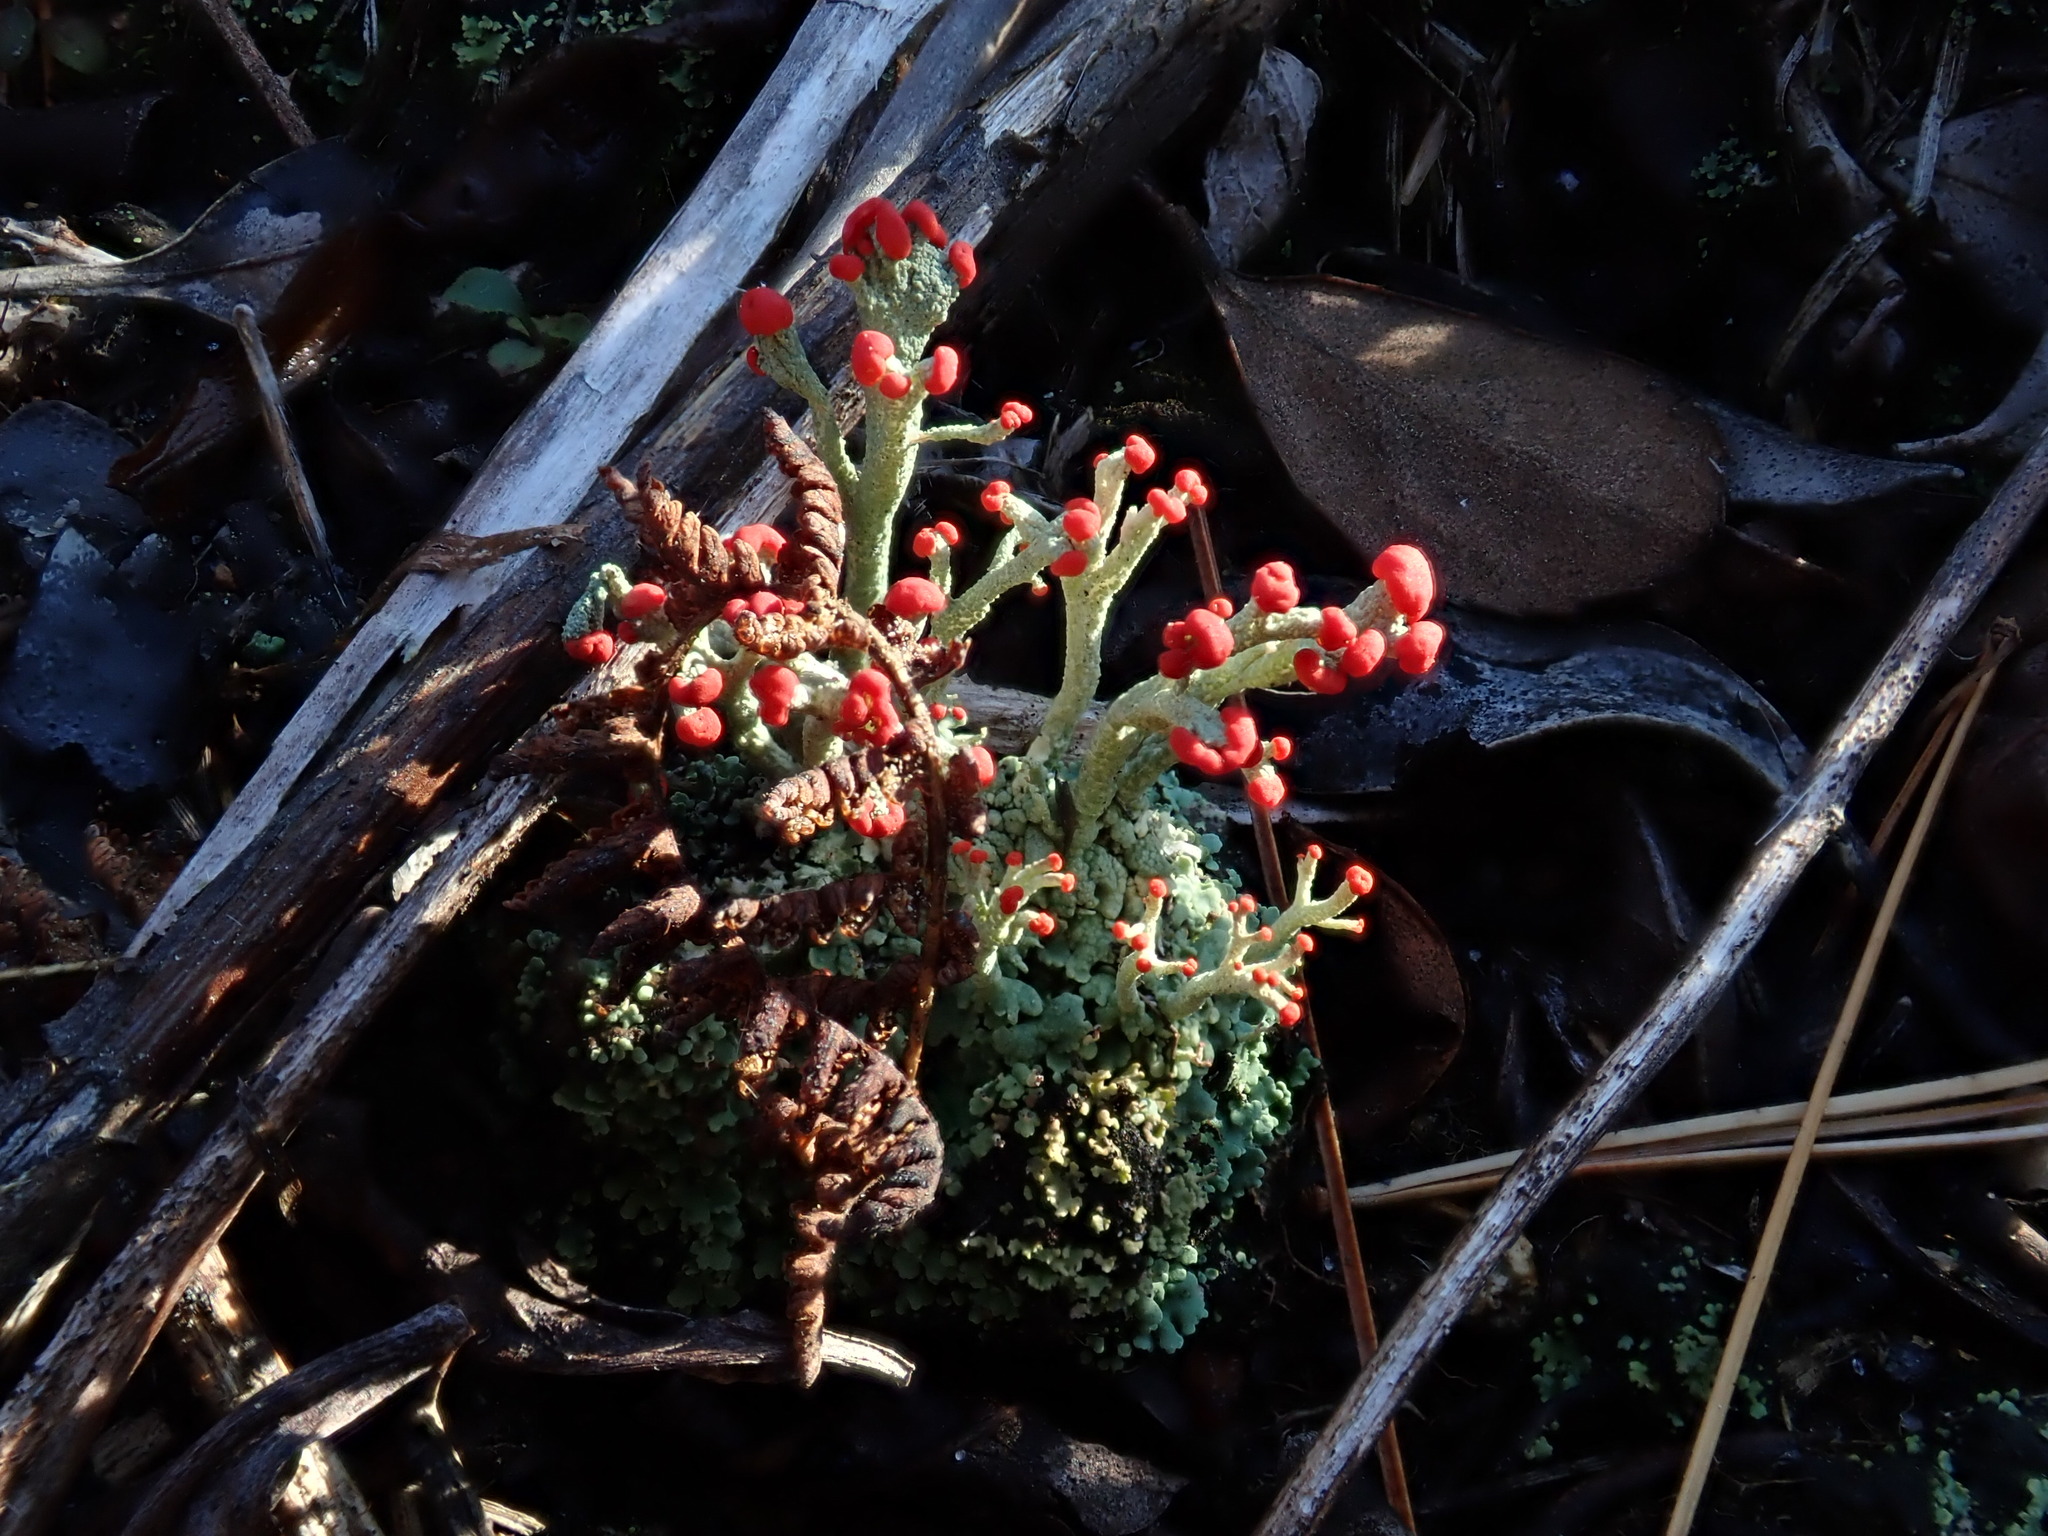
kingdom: Fungi
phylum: Ascomycota
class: Lecanoromycetes
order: Lecanorales
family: Cladoniaceae
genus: Cladonia
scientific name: Cladonia cristatella
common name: British soldier lichen
